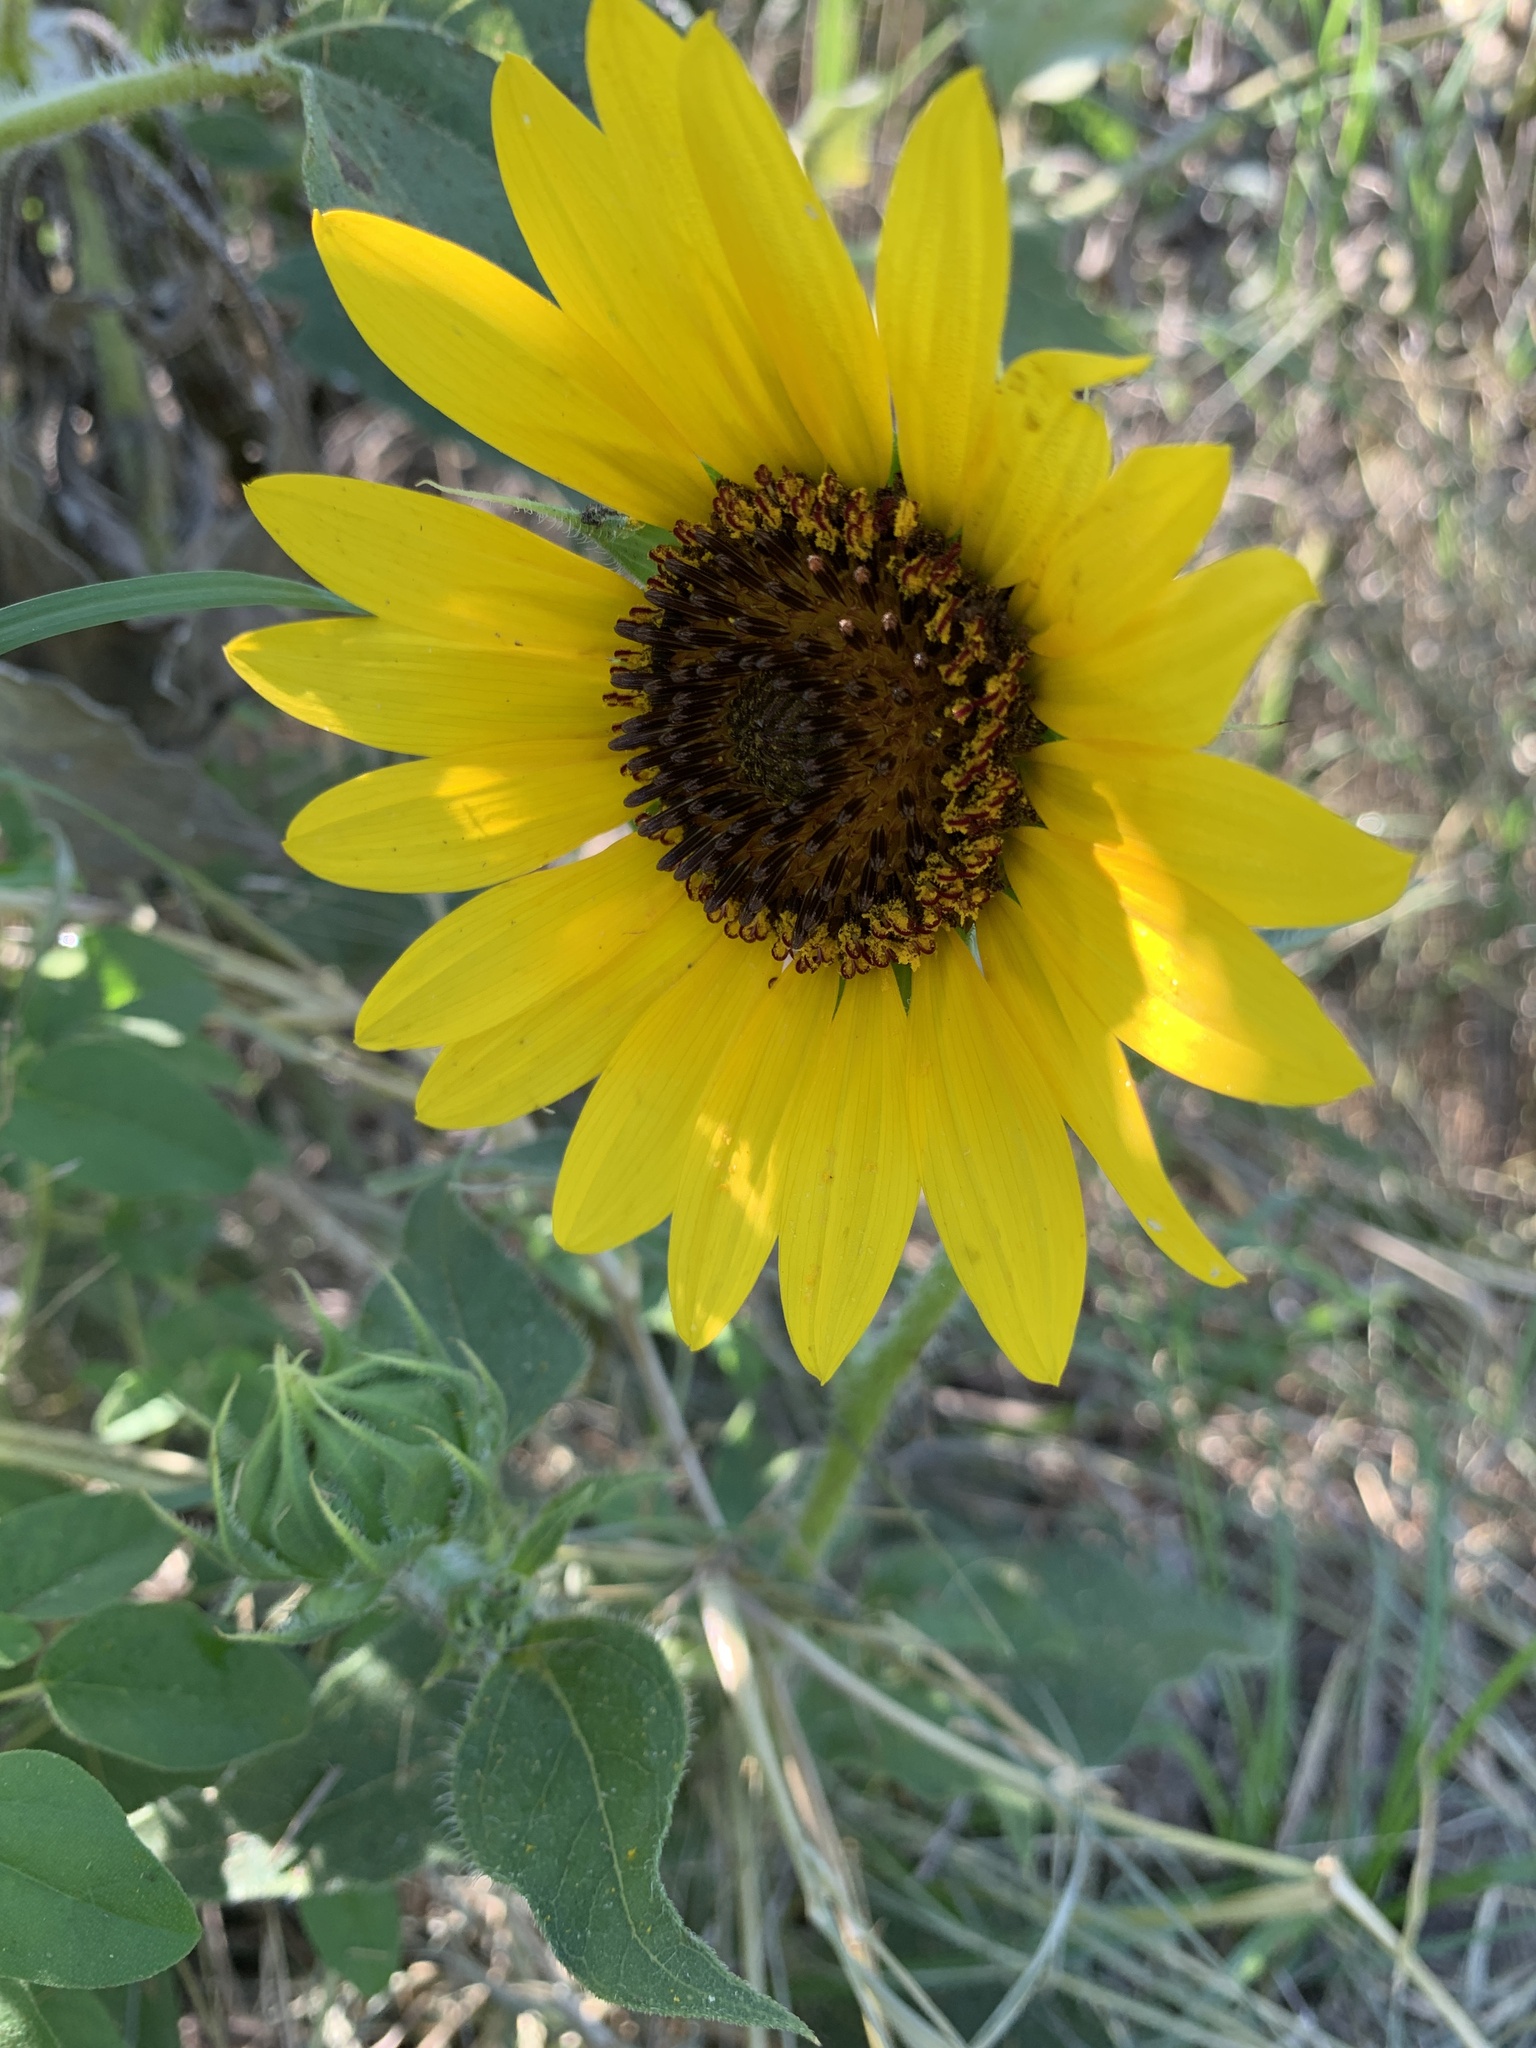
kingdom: Plantae
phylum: Tracheophyta
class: Magnoliopsida
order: Asterales
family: Asteraceae
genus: Helianthus
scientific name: Helianthus annuus
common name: Sunflower
